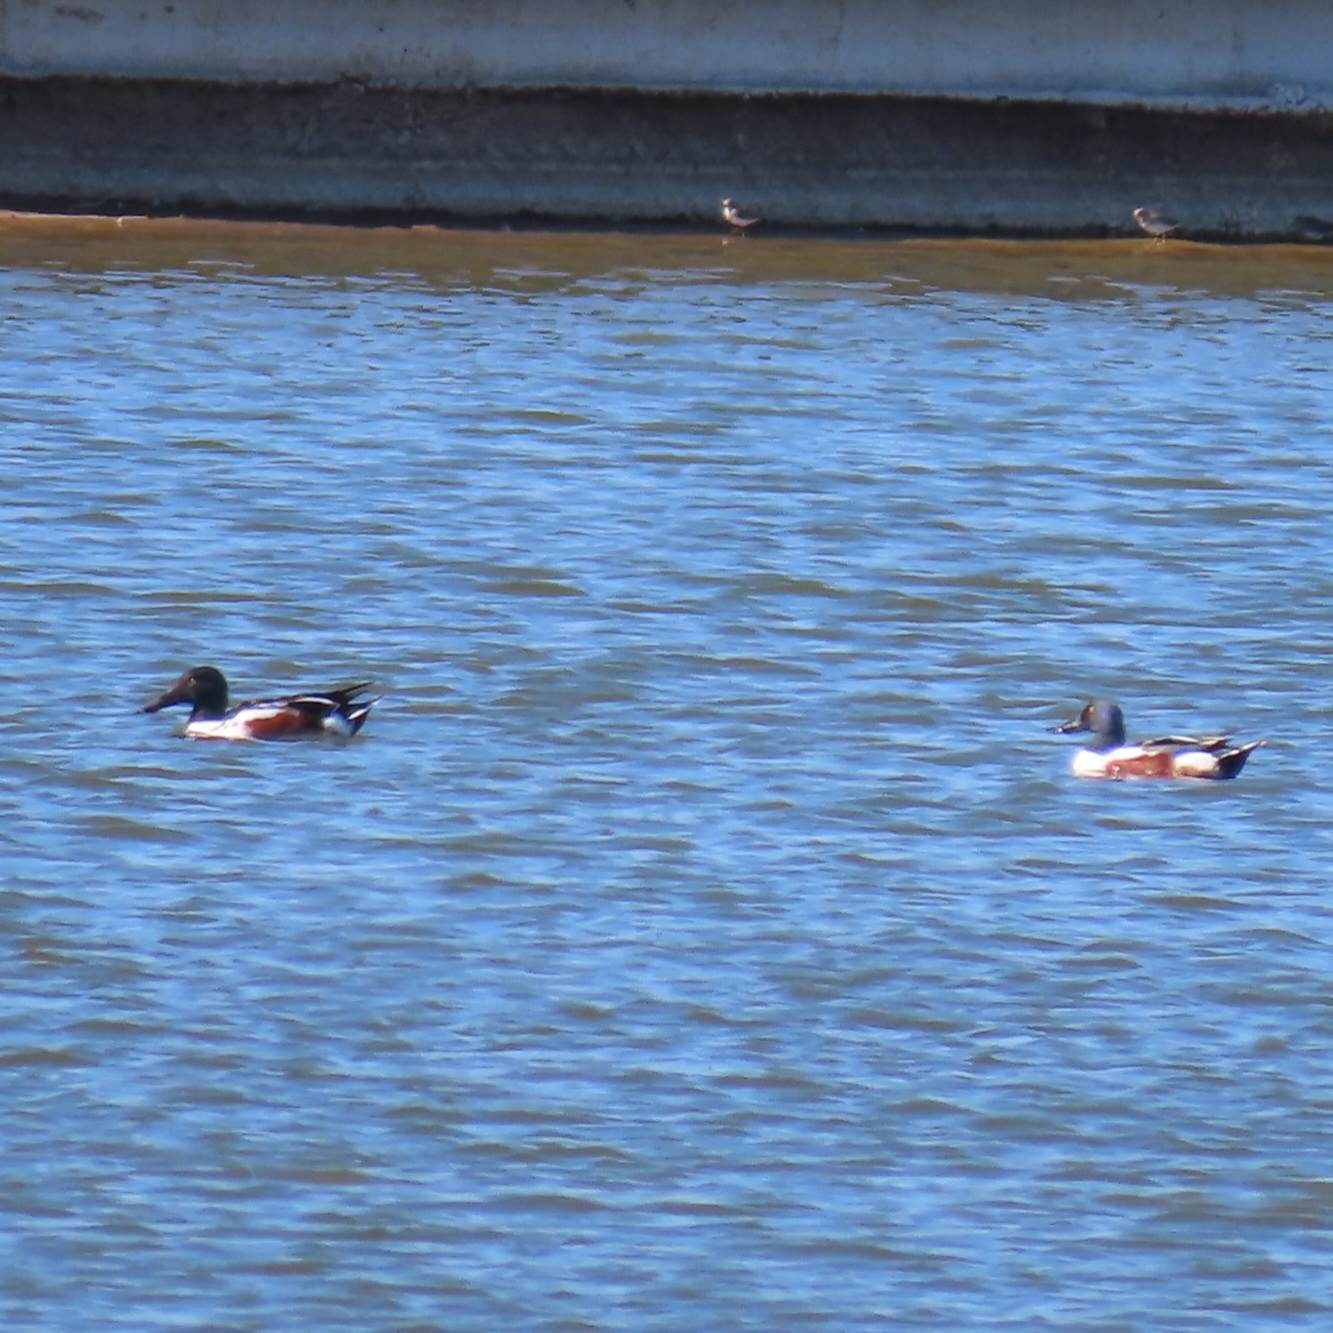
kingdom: Animalia
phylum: Chordata
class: Aves
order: Anseriformes
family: Anatidae
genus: Spatula
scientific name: Spatula clypeata
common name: Northern shoveler
